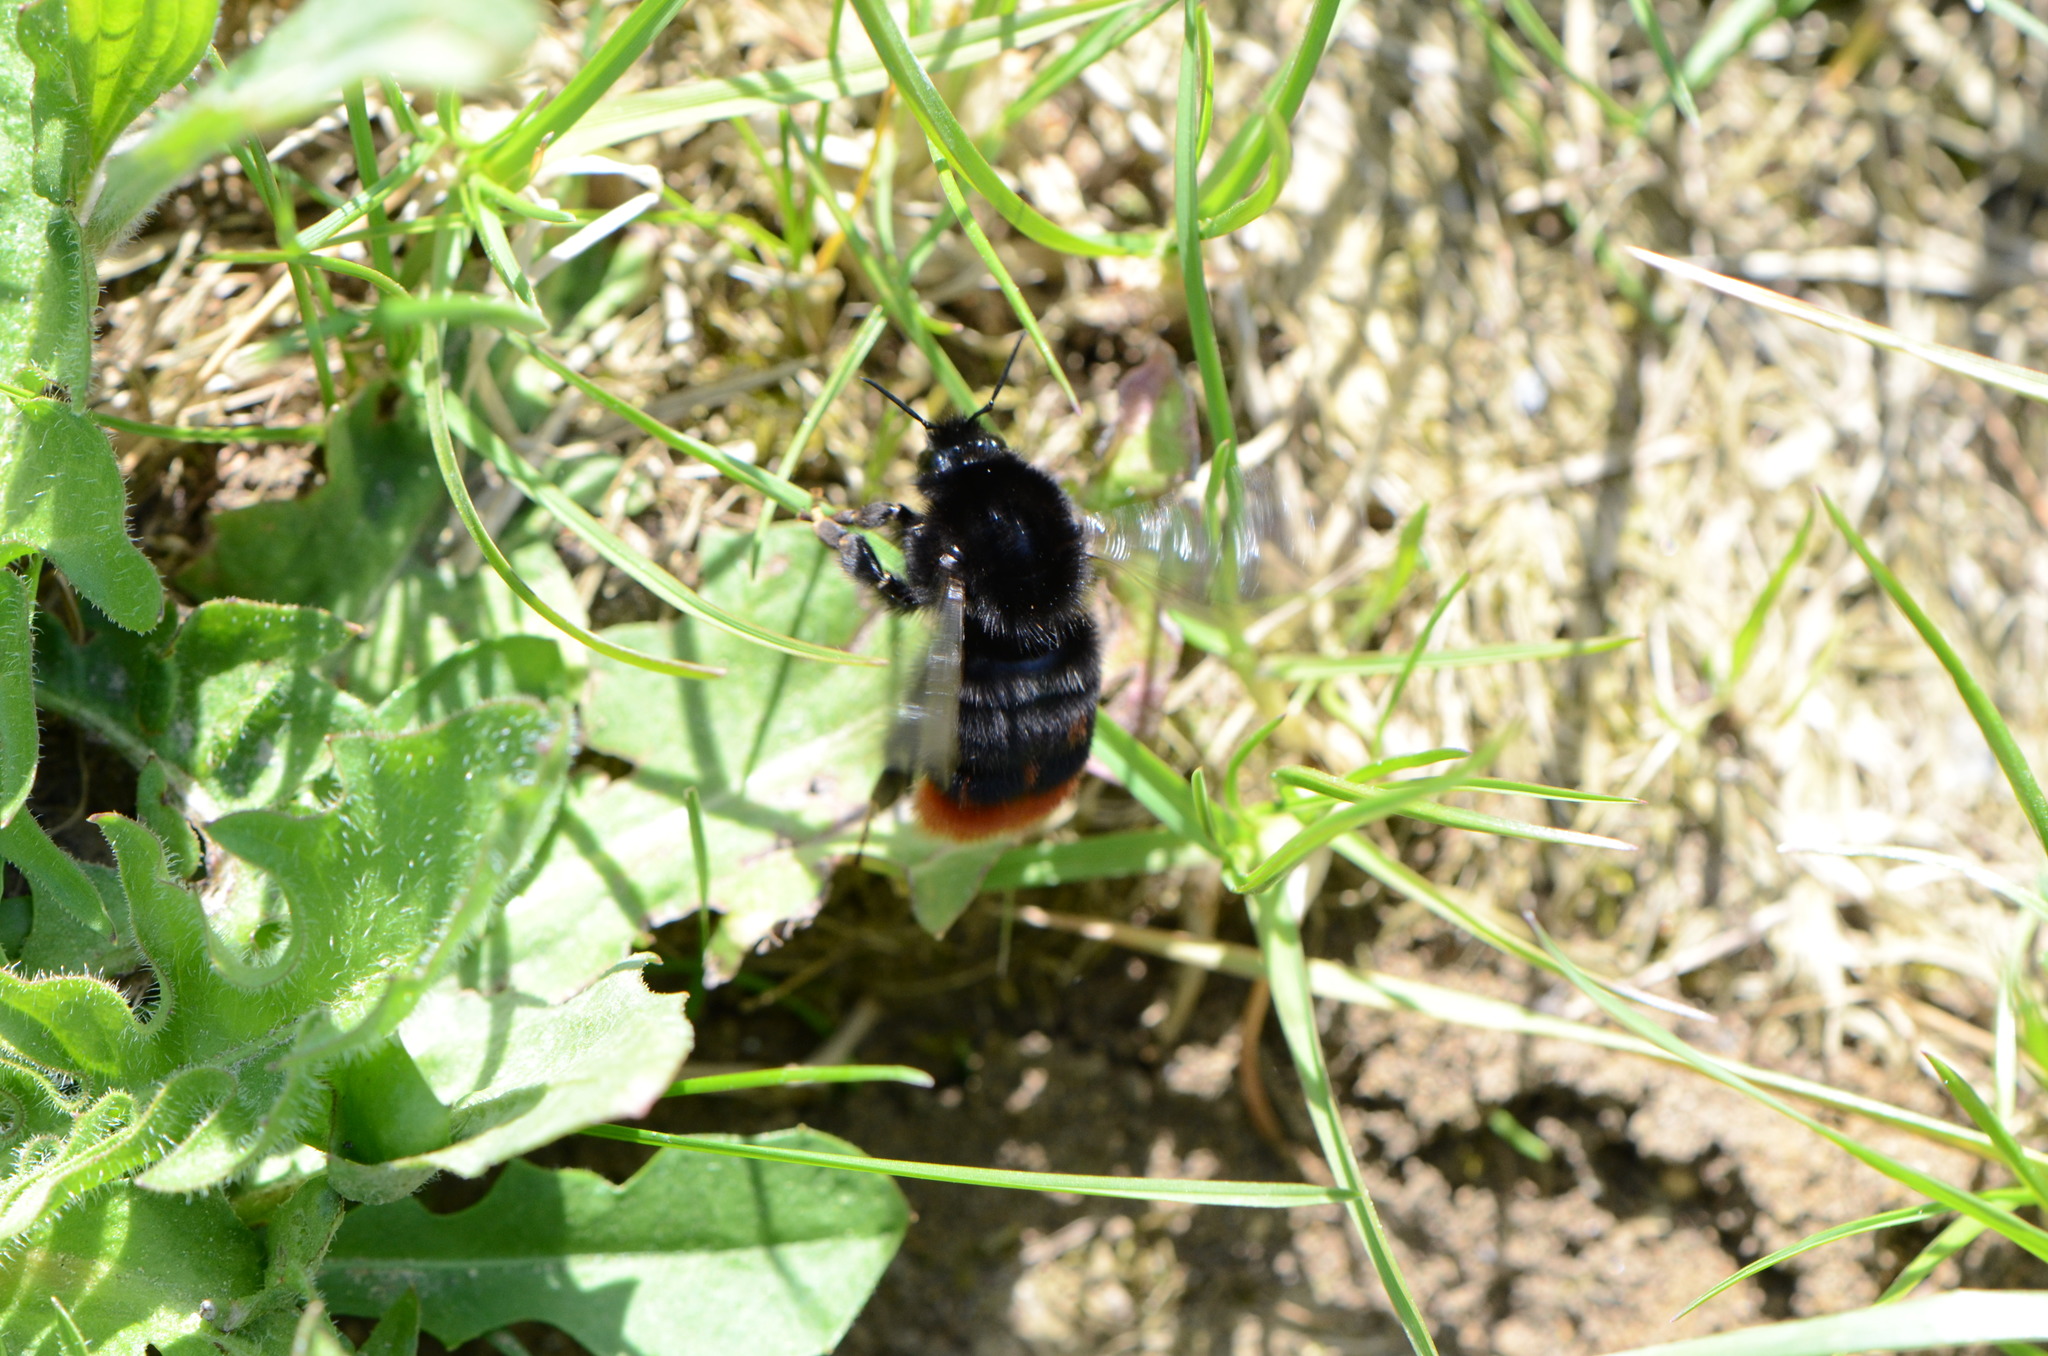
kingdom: Animalia
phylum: Arthropoda
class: Insecta
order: Hymenoptera
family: Apidae
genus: Bombus
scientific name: Bombus lapidarius
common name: Large red-tailed humble-bee
